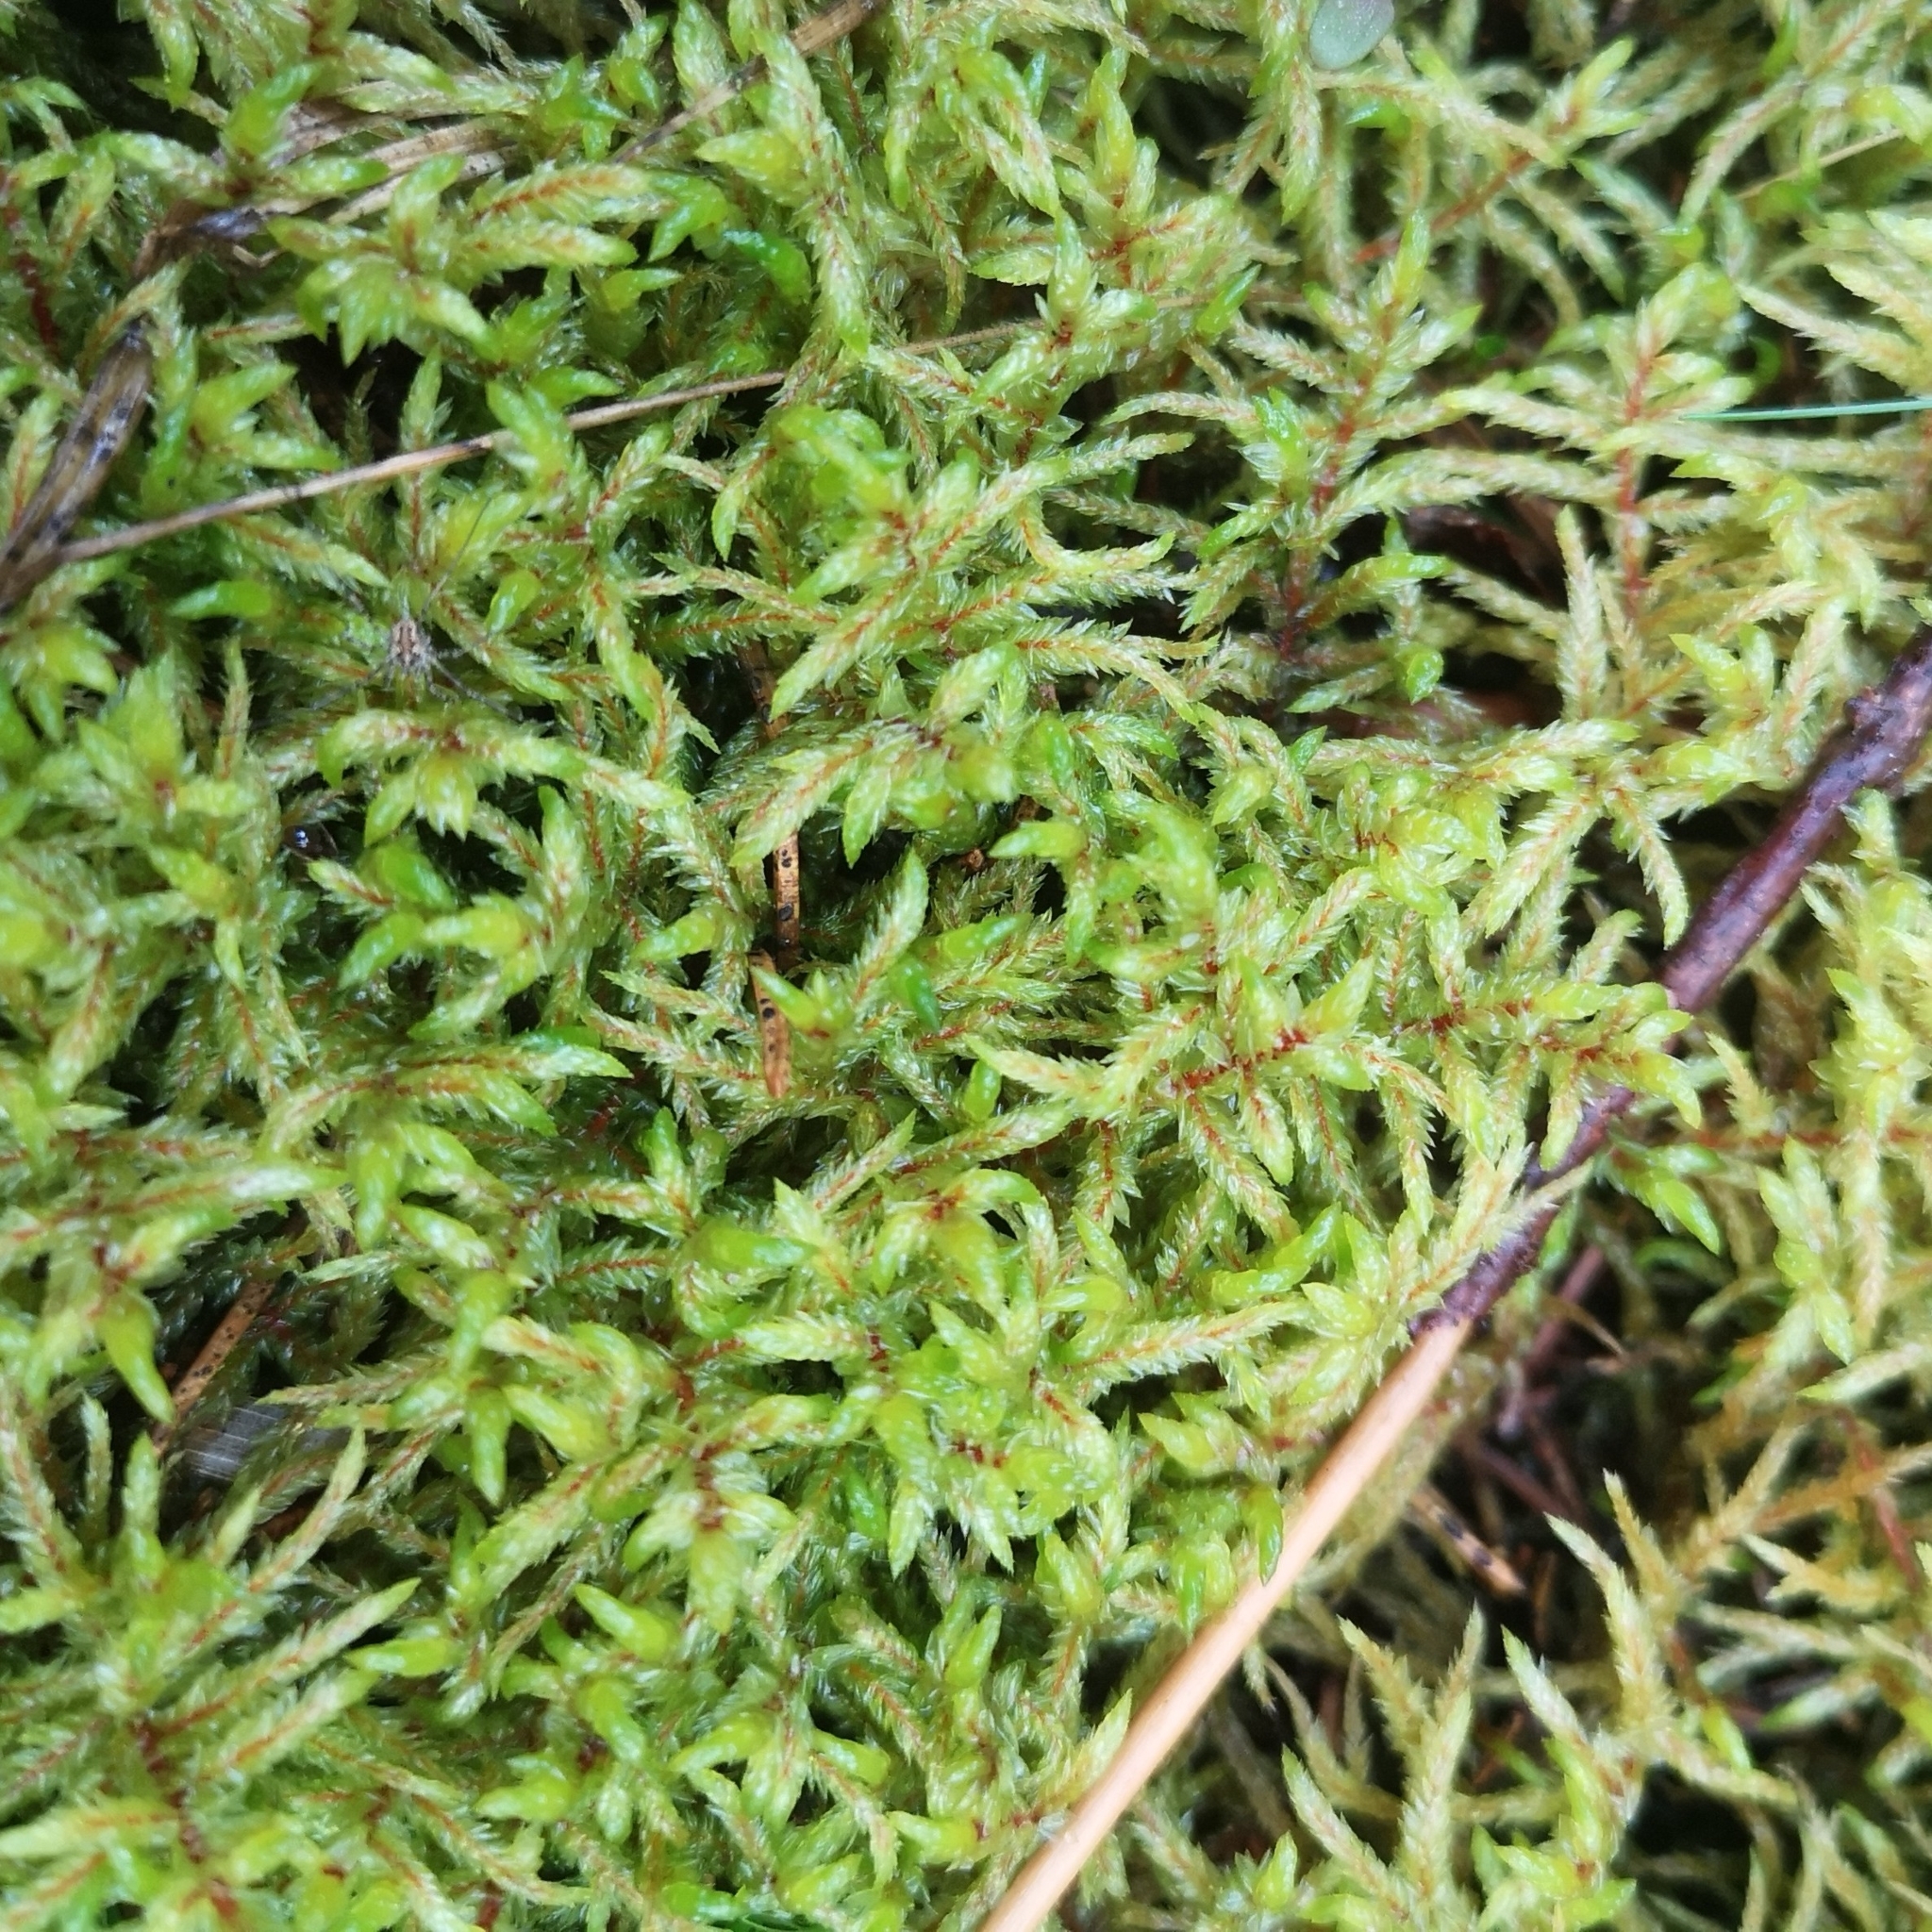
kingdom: Plantae
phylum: Bryophyta
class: Bryopsida
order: Hypnales
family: Hylocomiaceae
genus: Pleurozium
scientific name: Pleurozium schreberi
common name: Red-stemmed feather moss
